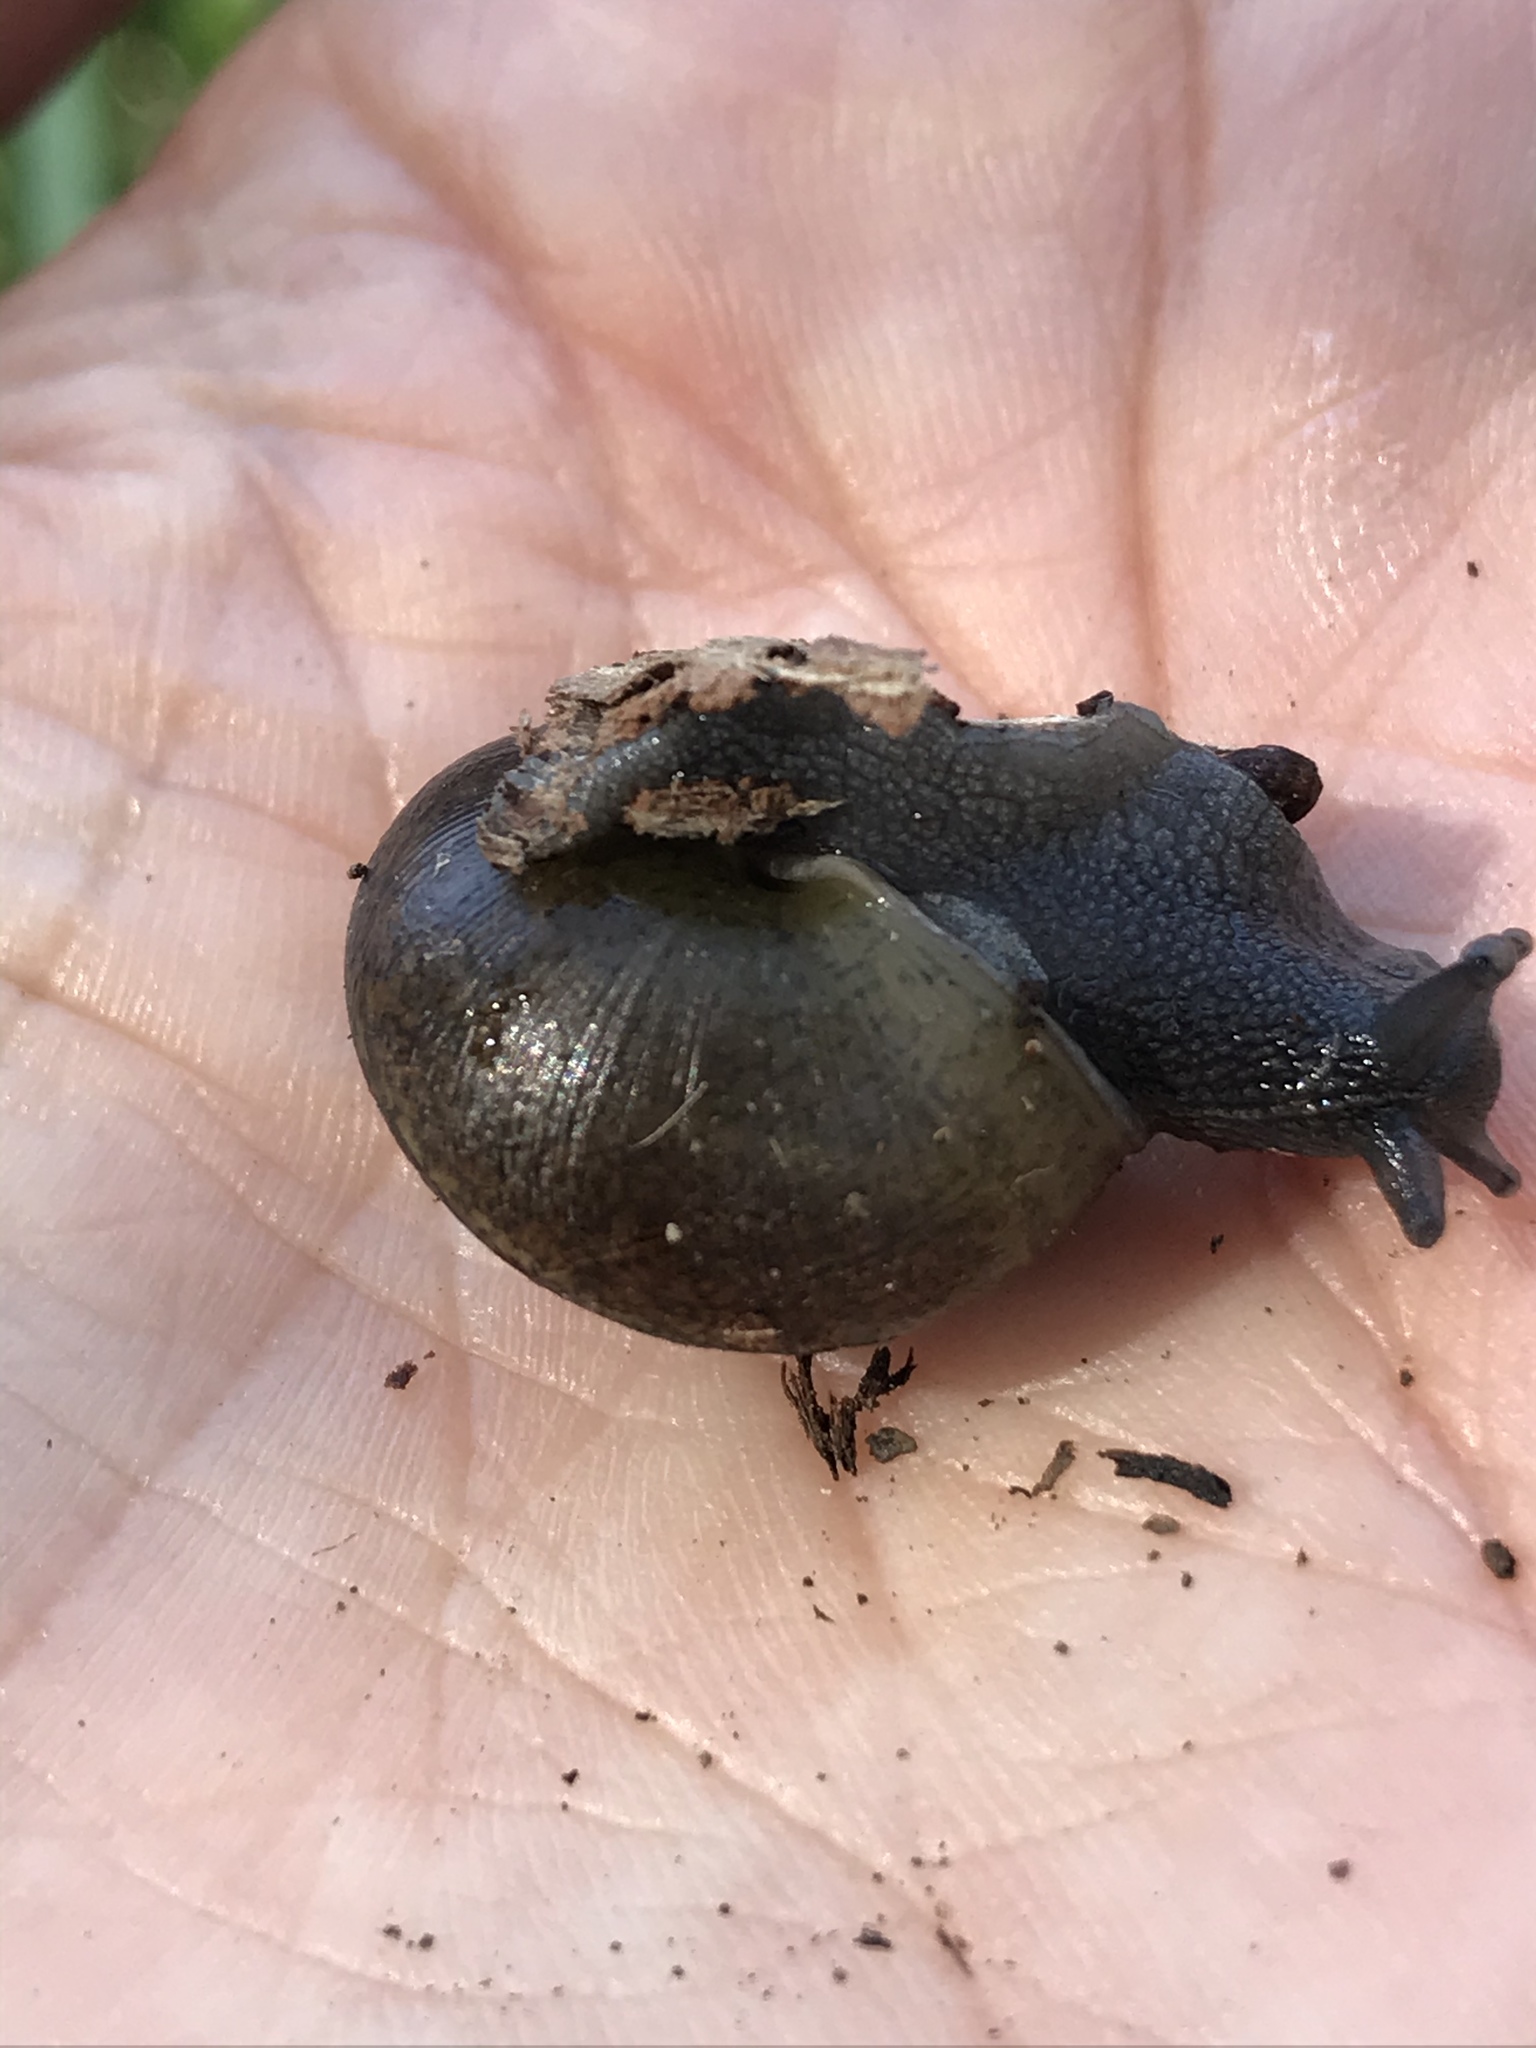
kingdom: Animalia
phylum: Mollusca
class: Gastropoda
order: Stylommatophora
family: Xanthonychidae
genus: Helminthoglypta
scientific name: Helminthoglypta tudiculata
